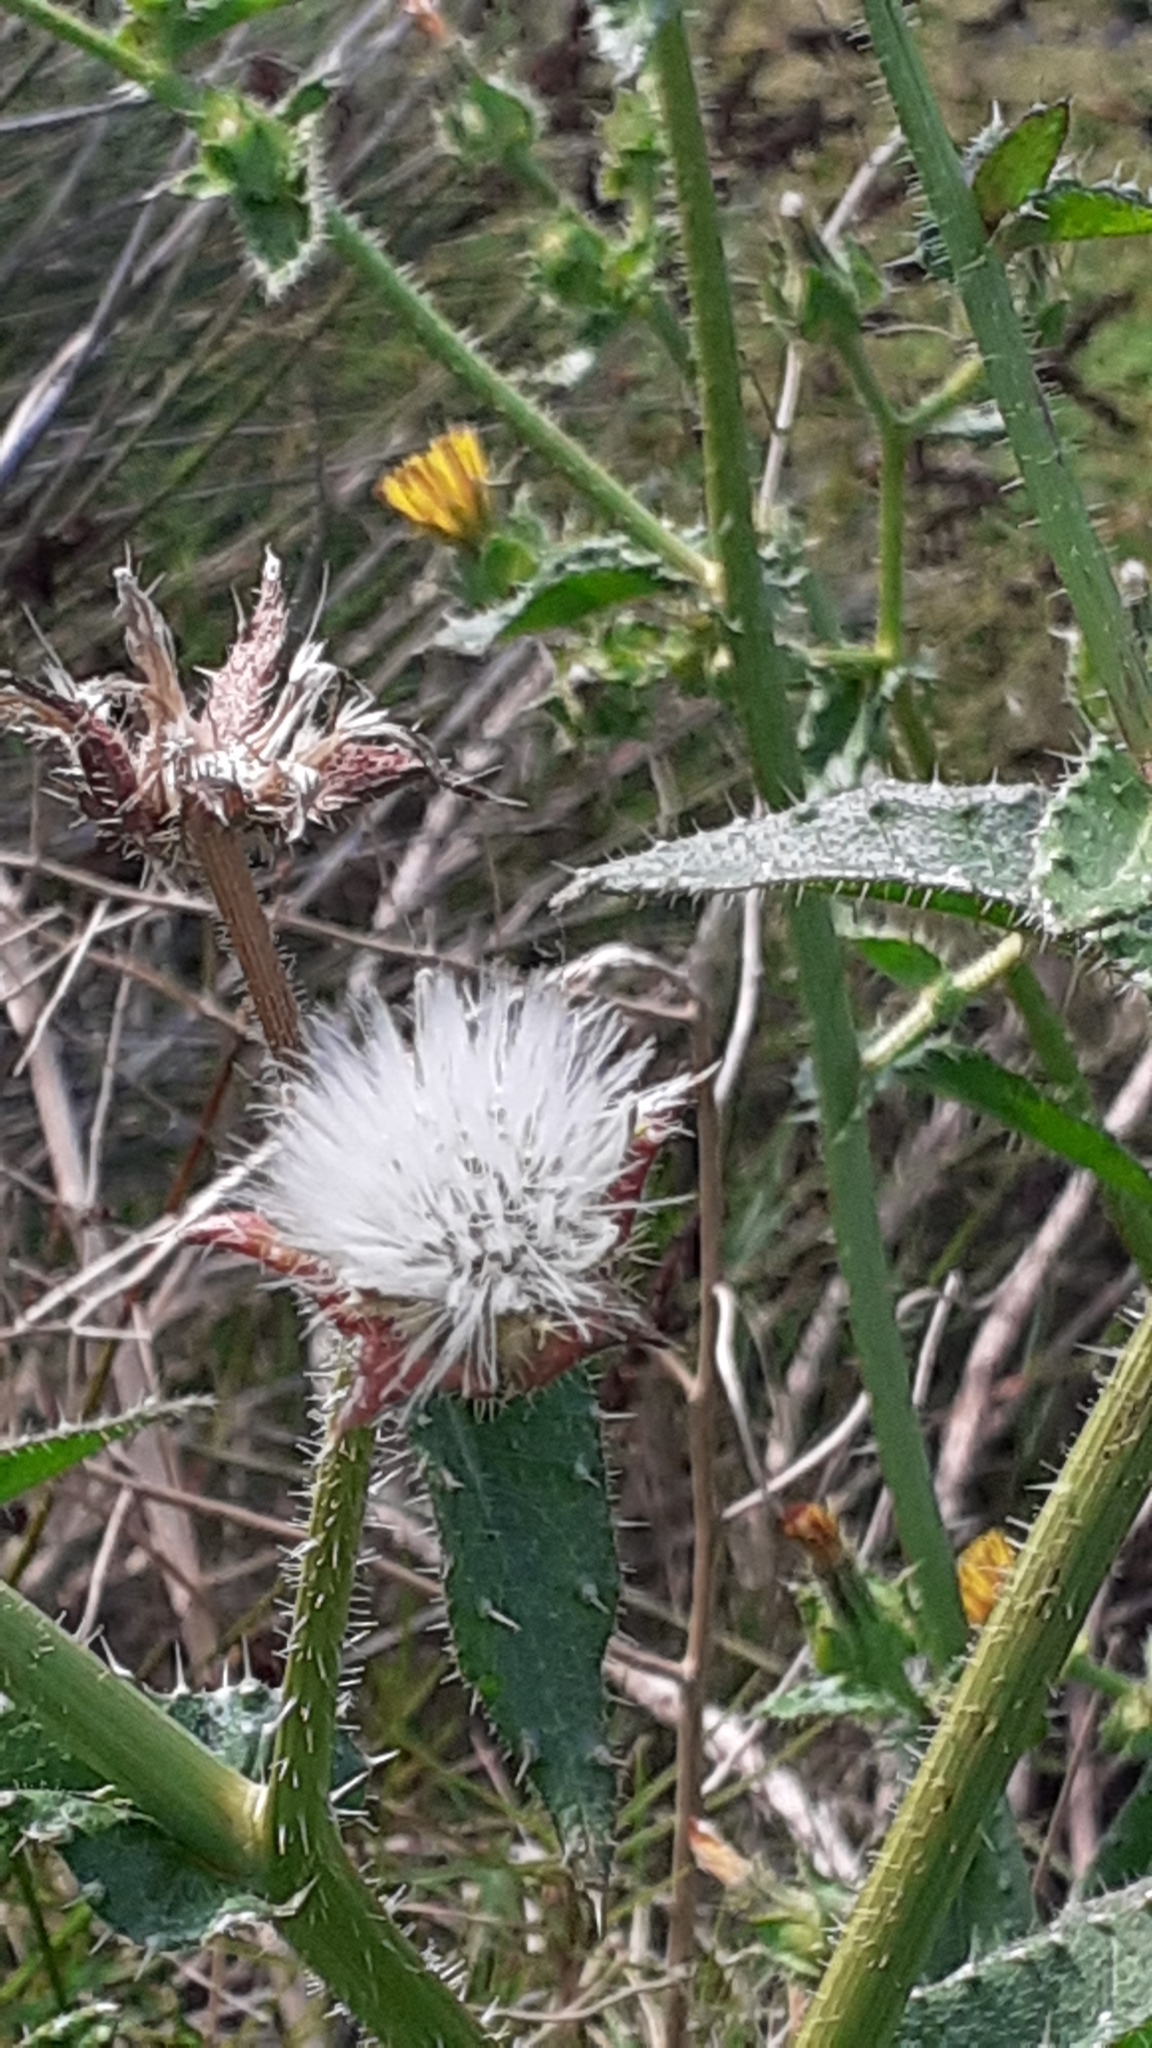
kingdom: Plantae
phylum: Tracheophyta
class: Magnoliopsida
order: Asterales
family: Asteraceae
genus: Helminthotheca
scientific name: Helminthotheca echioides
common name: Ox-tongue
